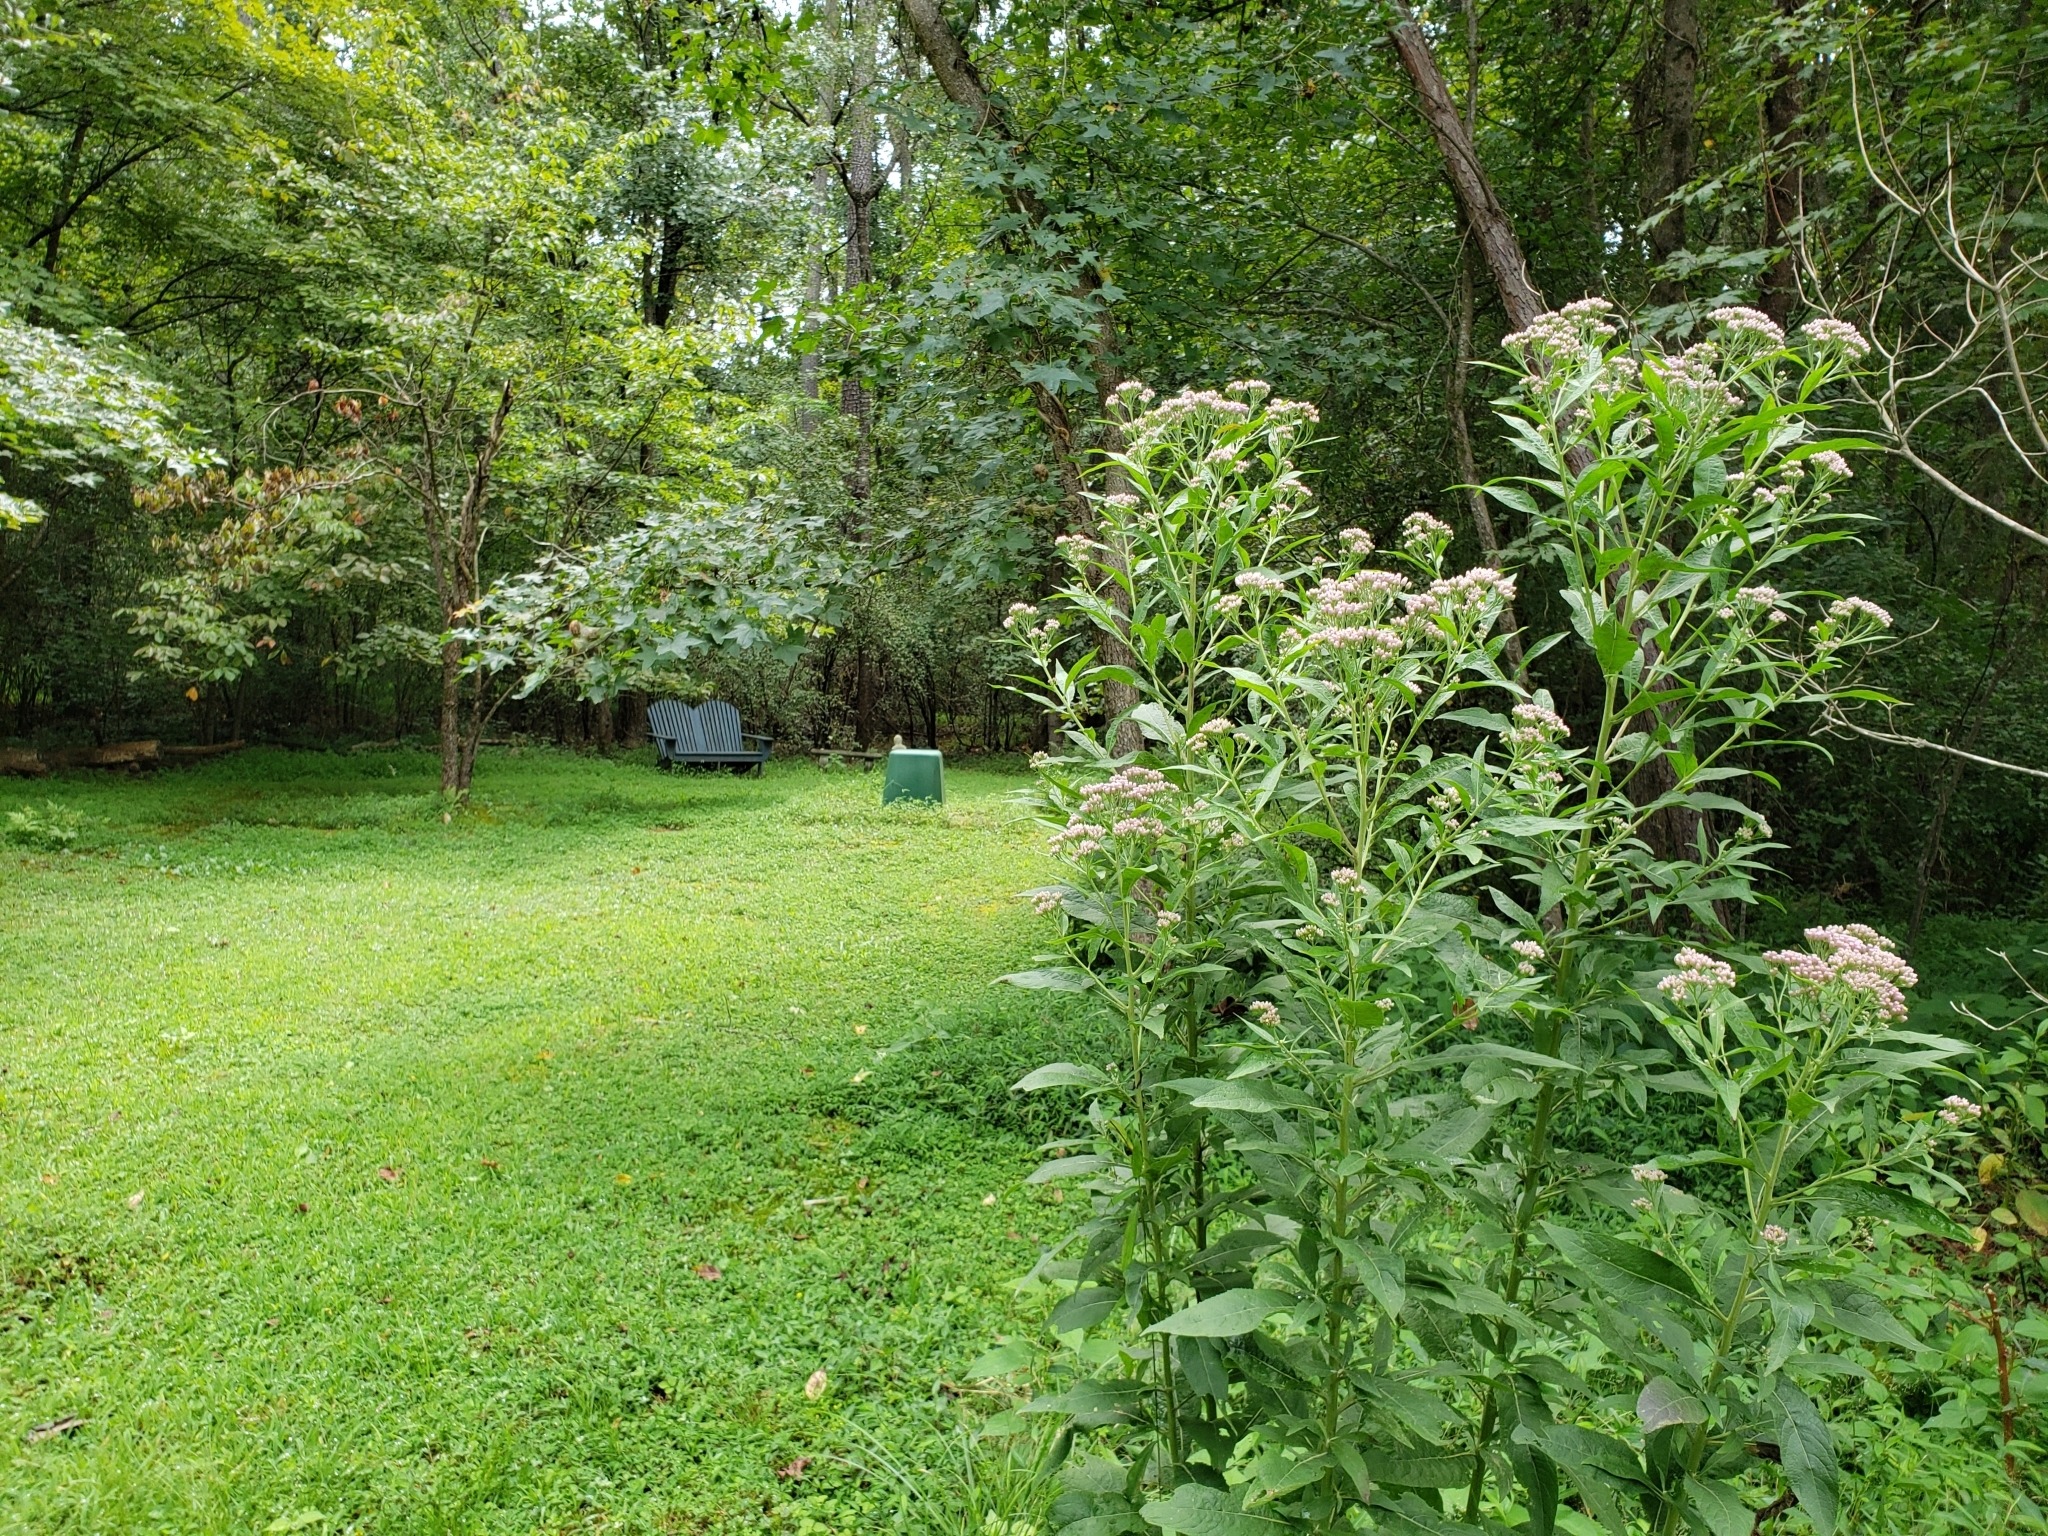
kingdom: Plantae
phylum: Tracheophyta
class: Magnoliopsida
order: Asterales
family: Asteraceae
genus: Pluchea
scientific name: Pluchea camphorata
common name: Camphor pluchea
